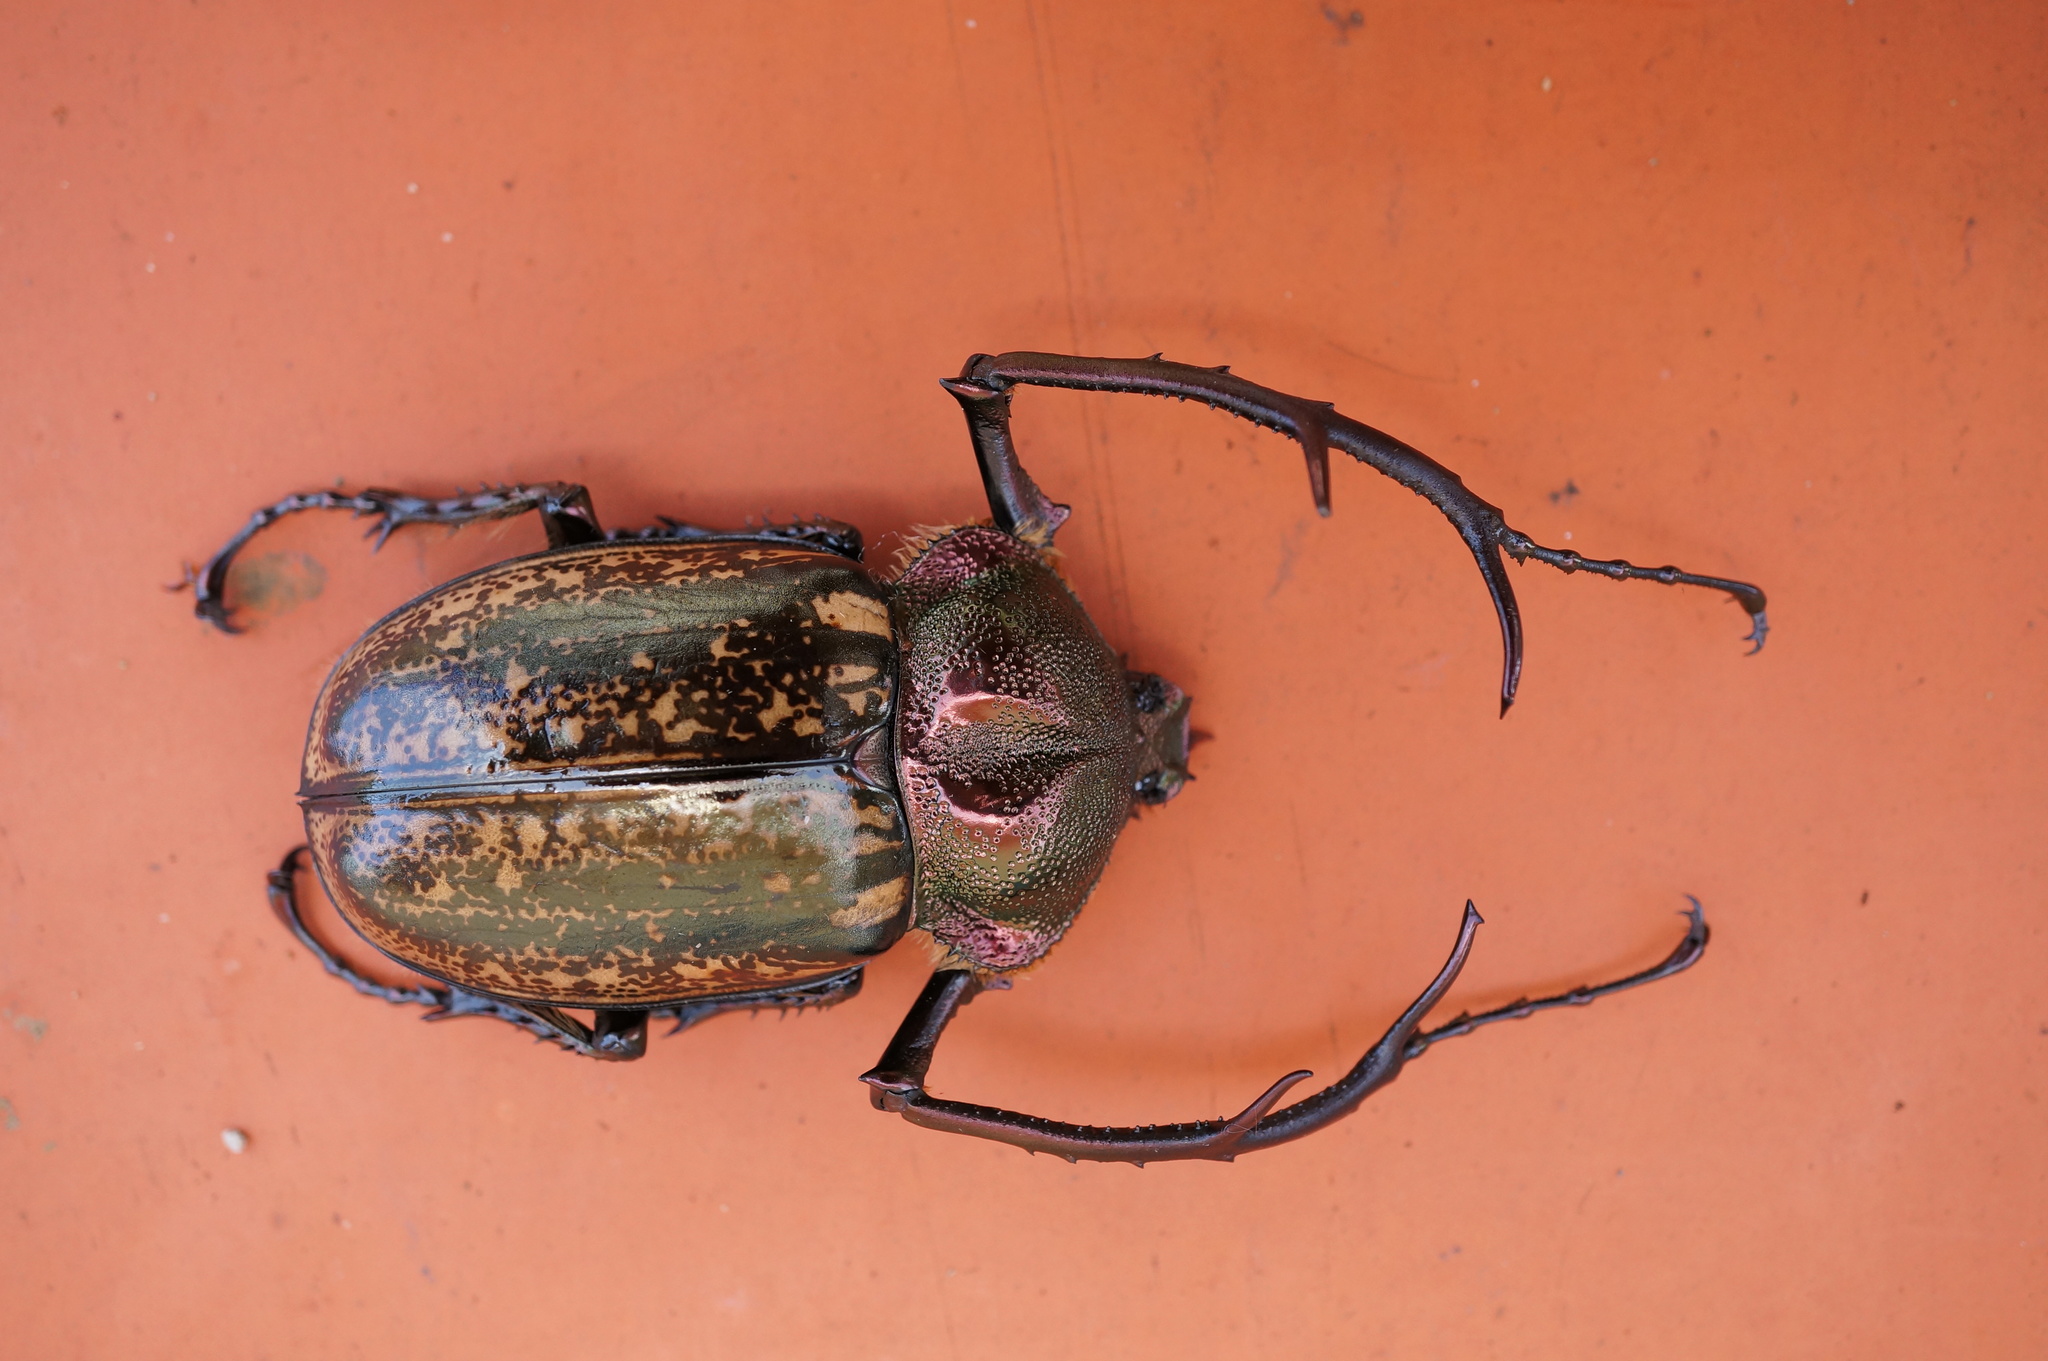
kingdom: Animalia
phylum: Arthropoda
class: Insecta
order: Coleoptera
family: Scarabaeidae
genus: Cheirotonus
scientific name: Cheirotonus parryi
